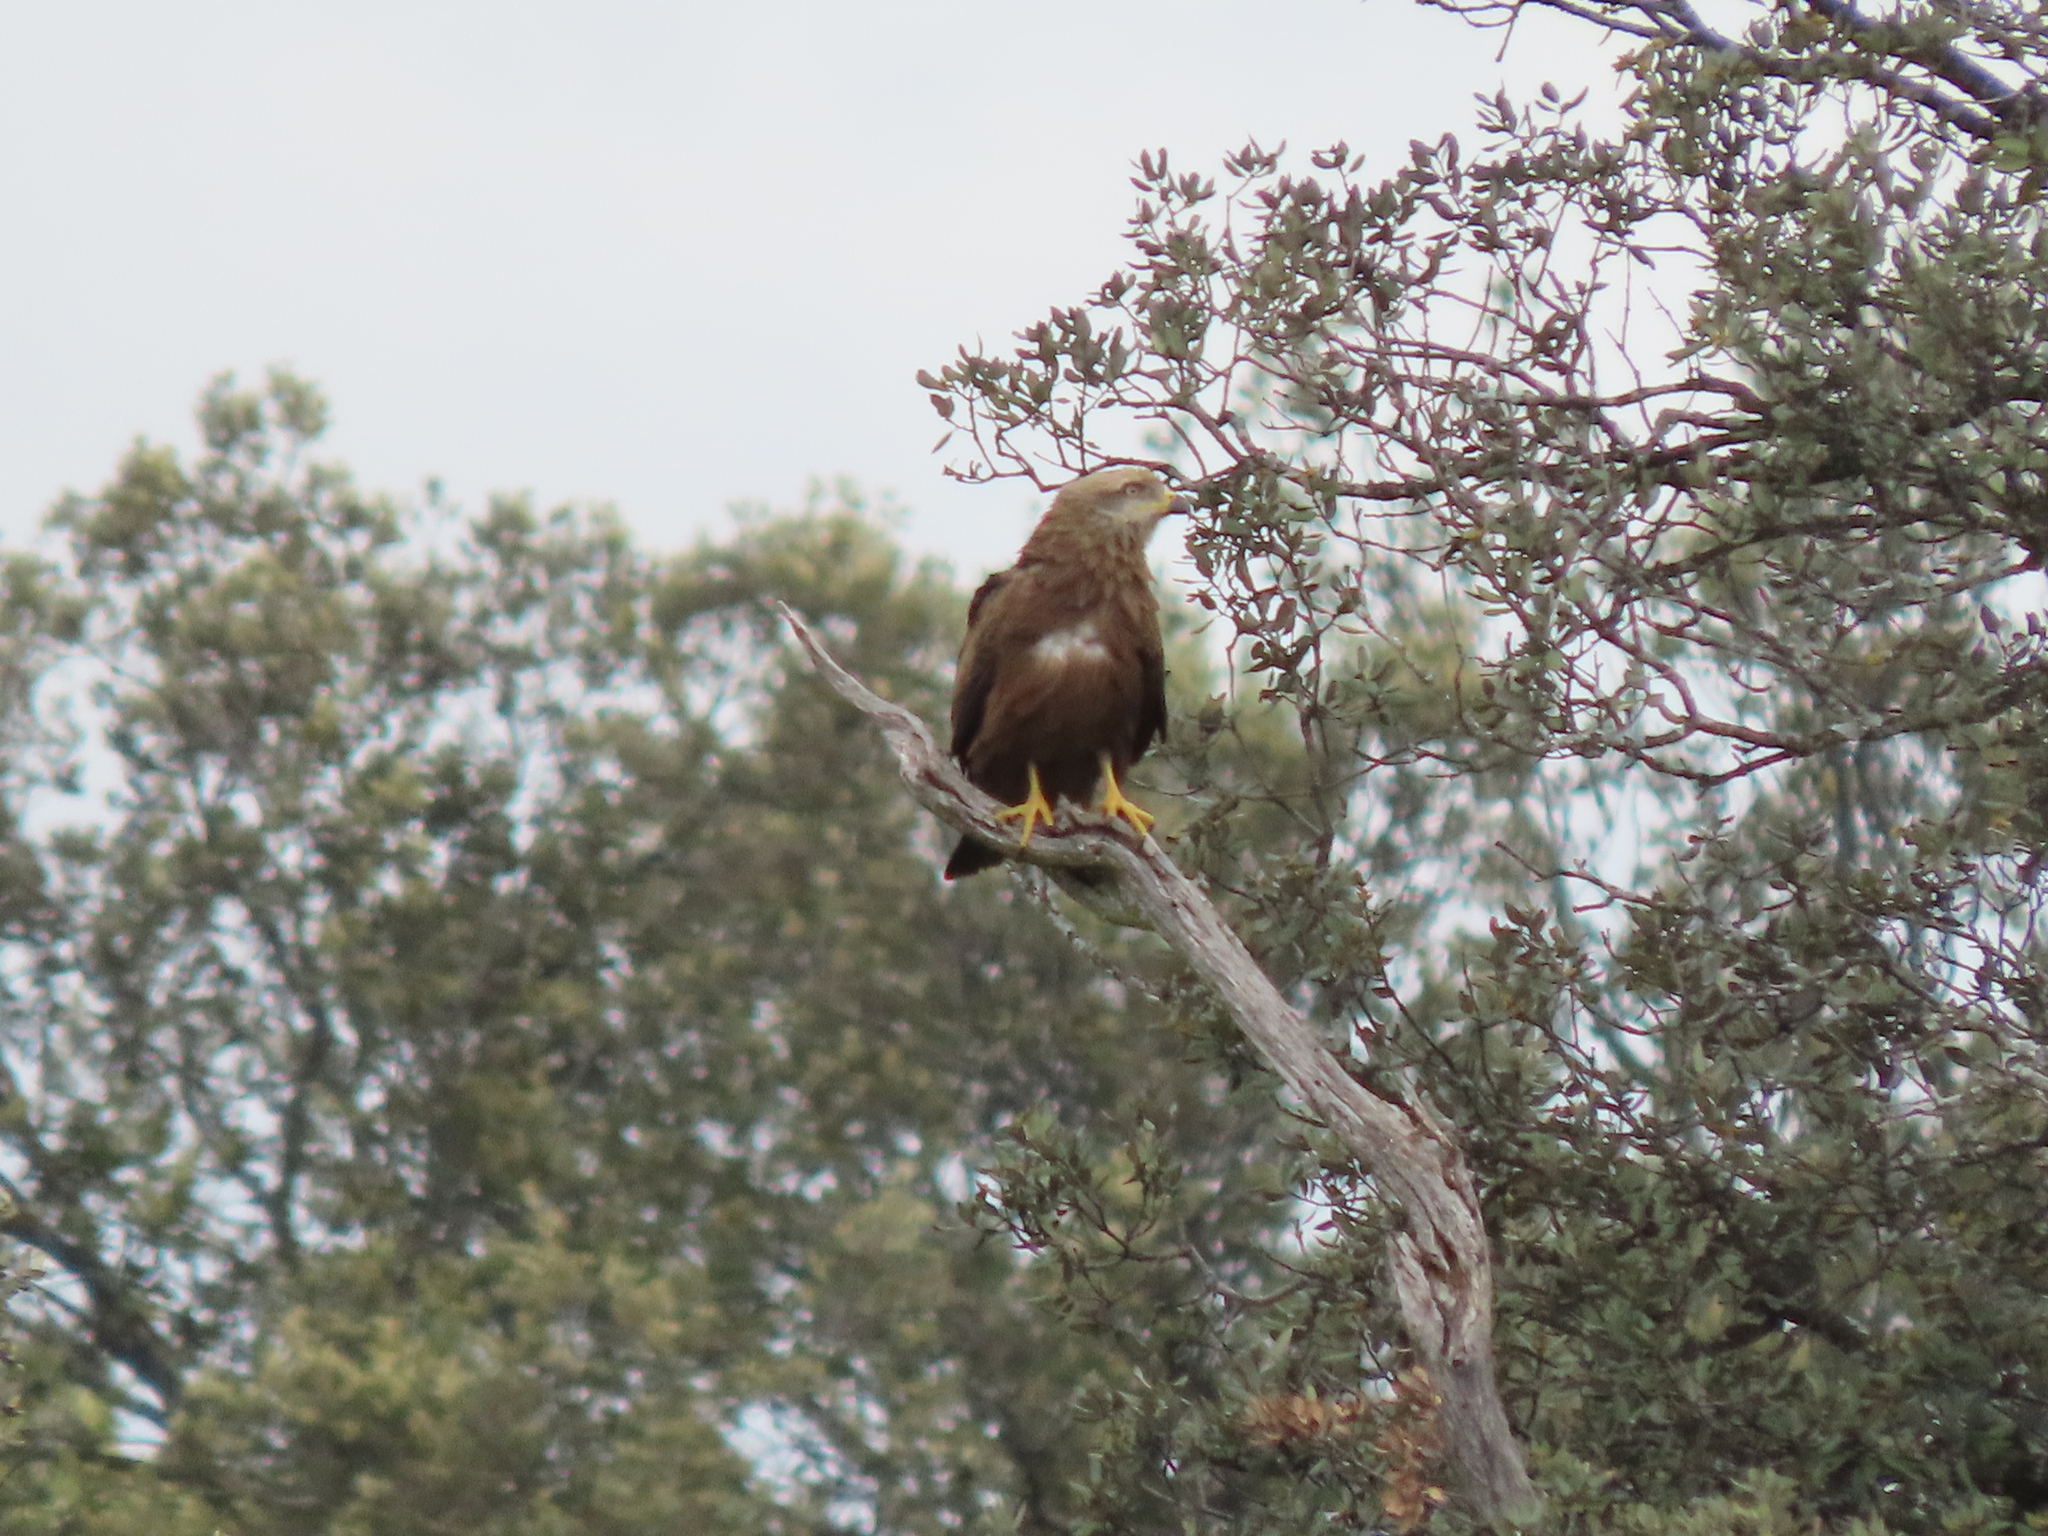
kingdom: Animalia
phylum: Chordata
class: Aves
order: Accipitriformes
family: Accipitridae
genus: Milvus
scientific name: Milvus migrans
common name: Black kite
